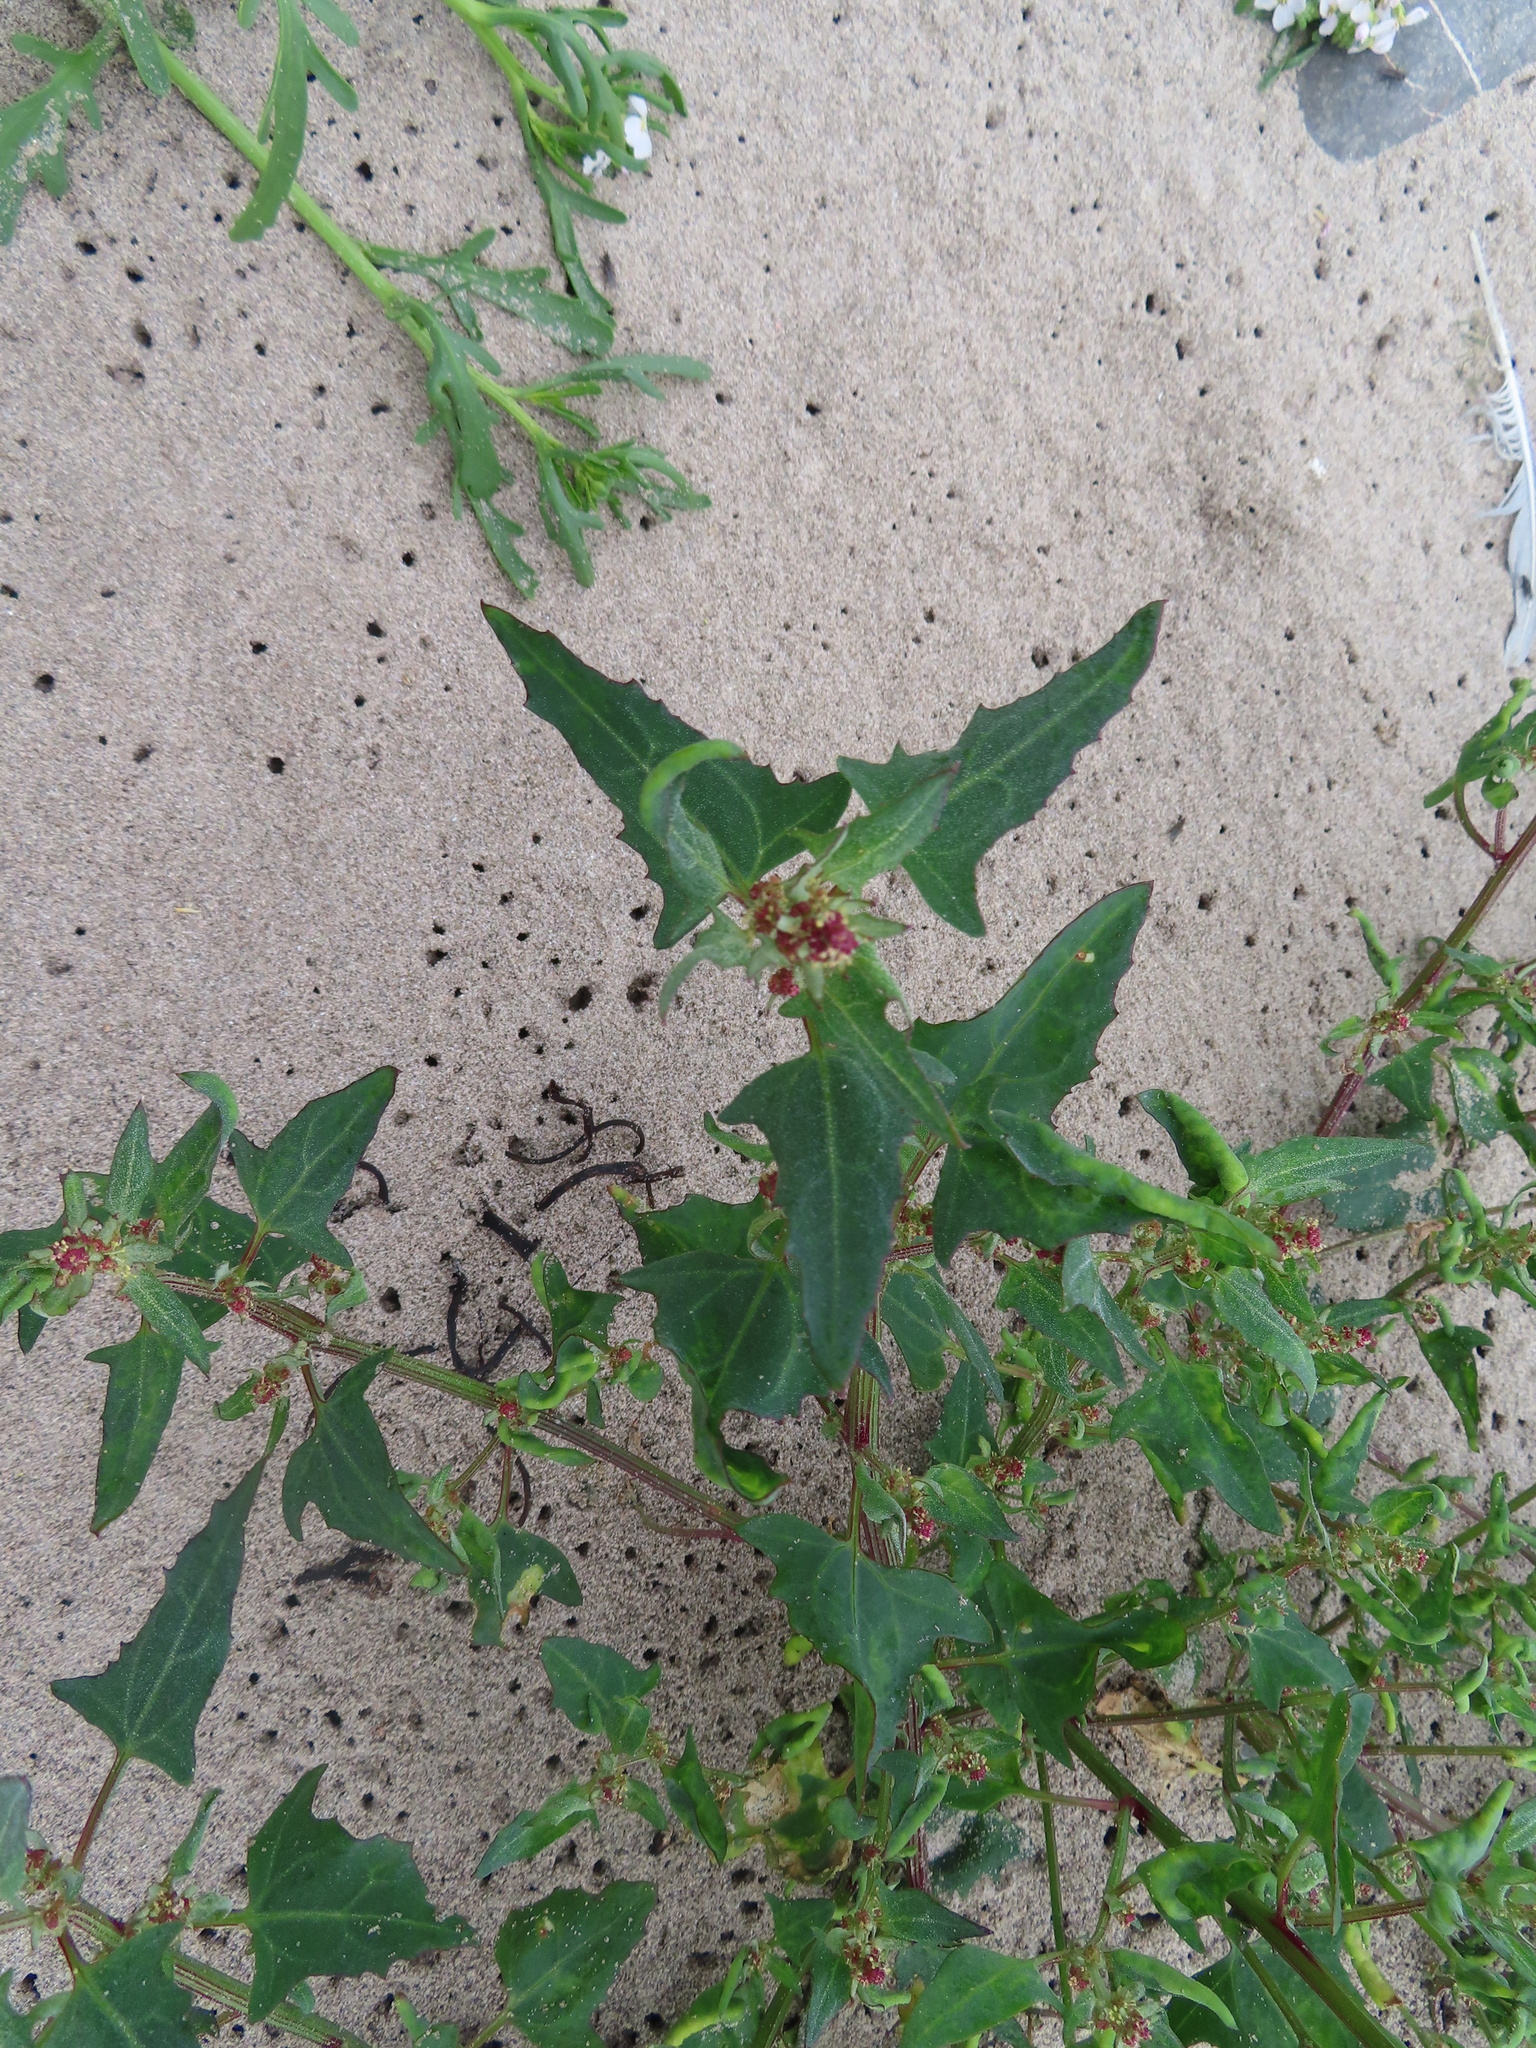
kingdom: Plantae
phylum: Tracheophyta
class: Magnoliopsida
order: Caryophyllales
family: Amaranthaceae
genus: Atriplex
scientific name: Atriplex glabriuscula
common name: Babington's orache
